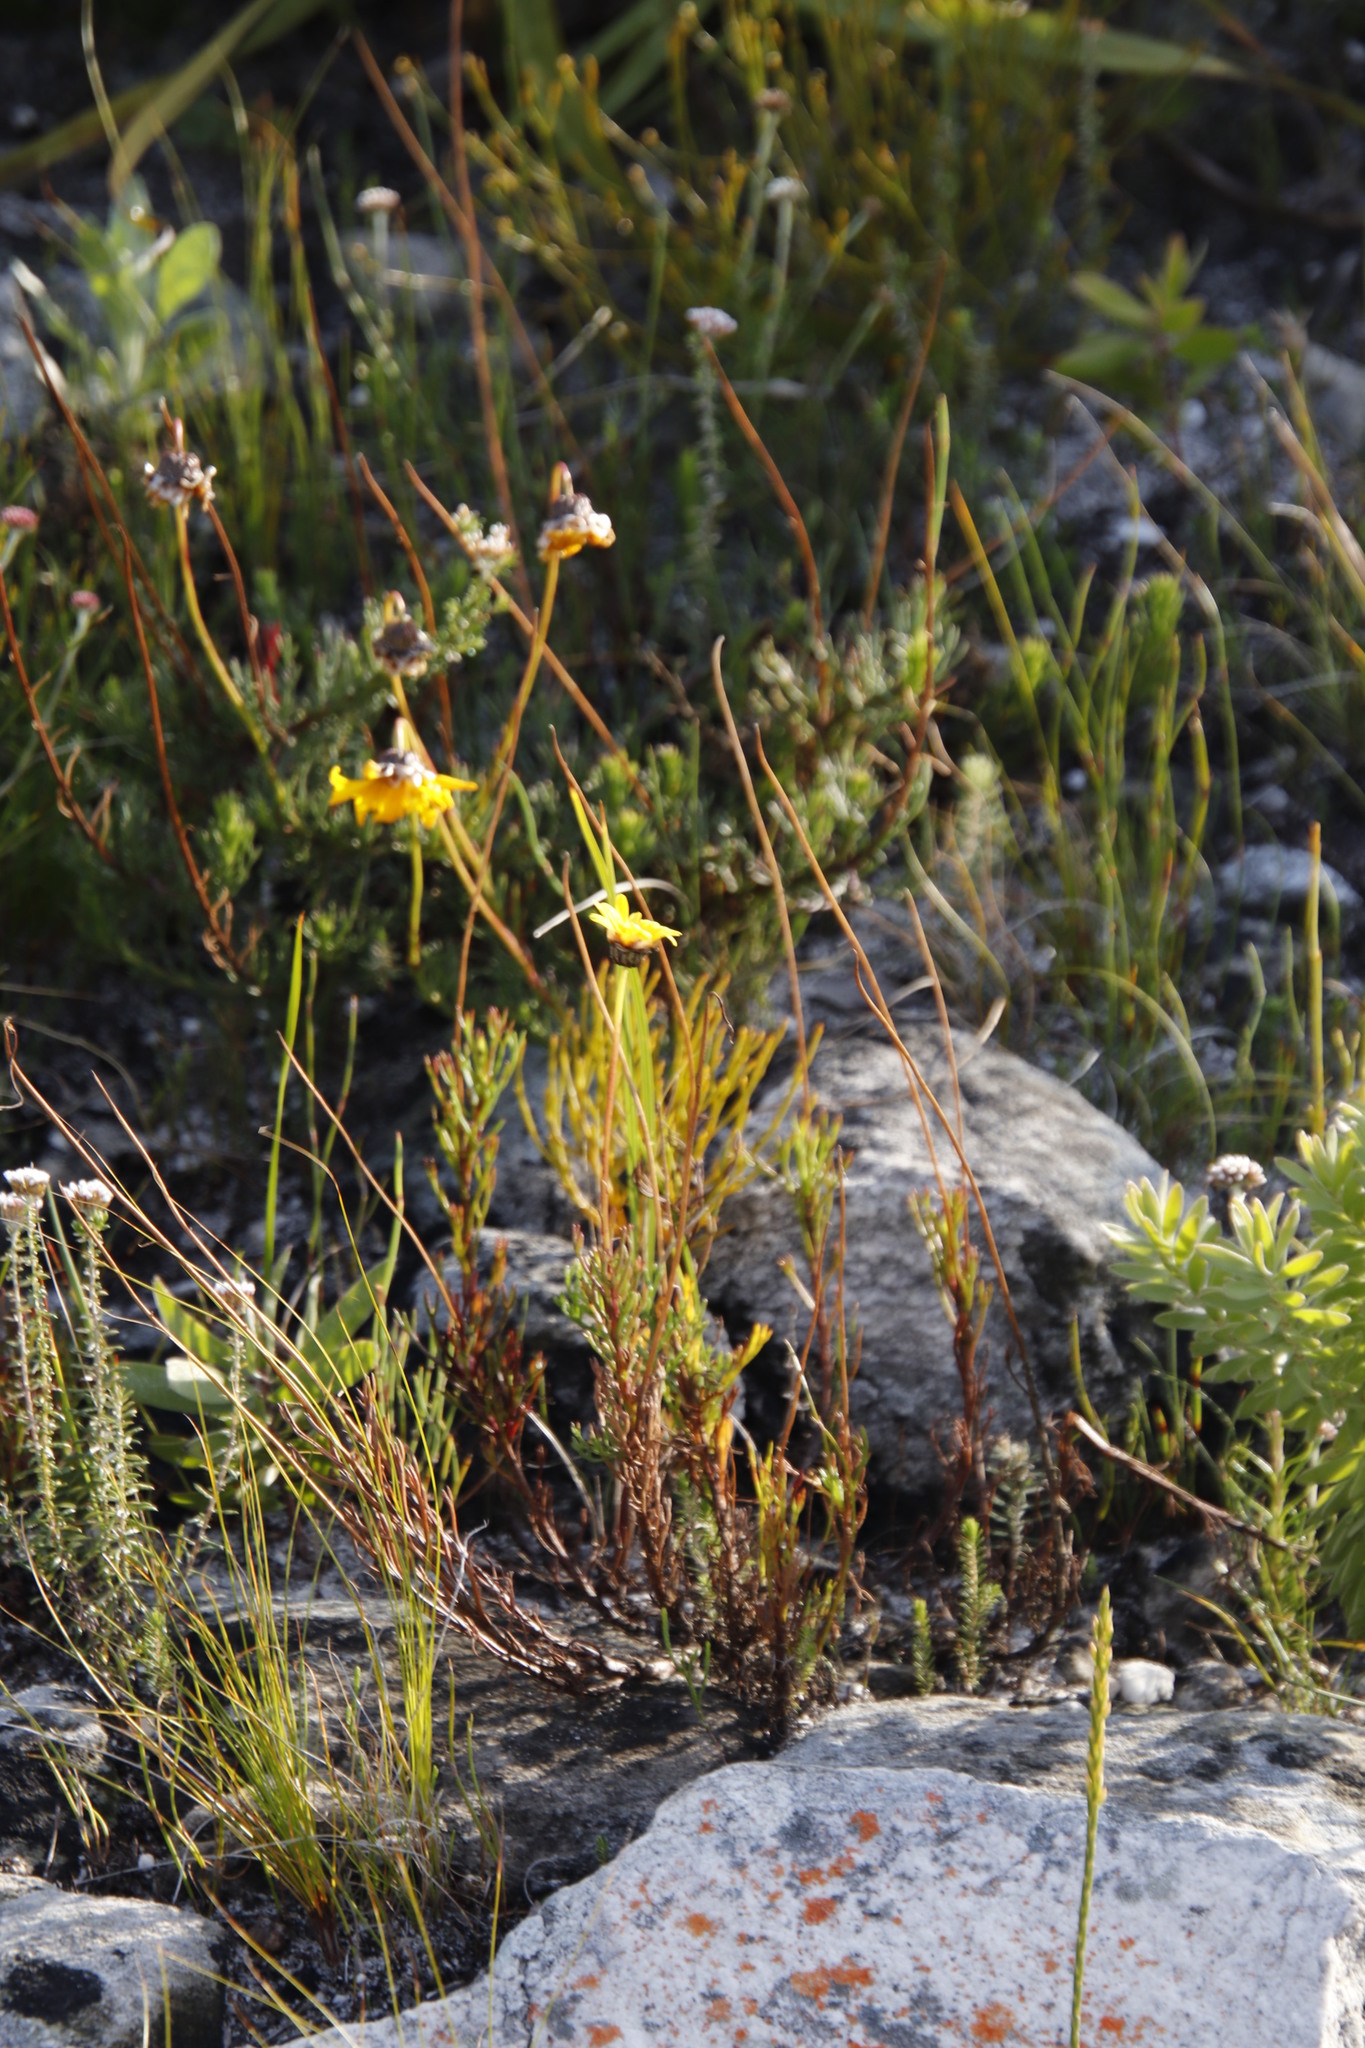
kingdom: Plantae
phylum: Tracheophyta
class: Magnoliopsida
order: Asterales
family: Asteraceae
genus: Euryops
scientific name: Euryops abrotanifolius
